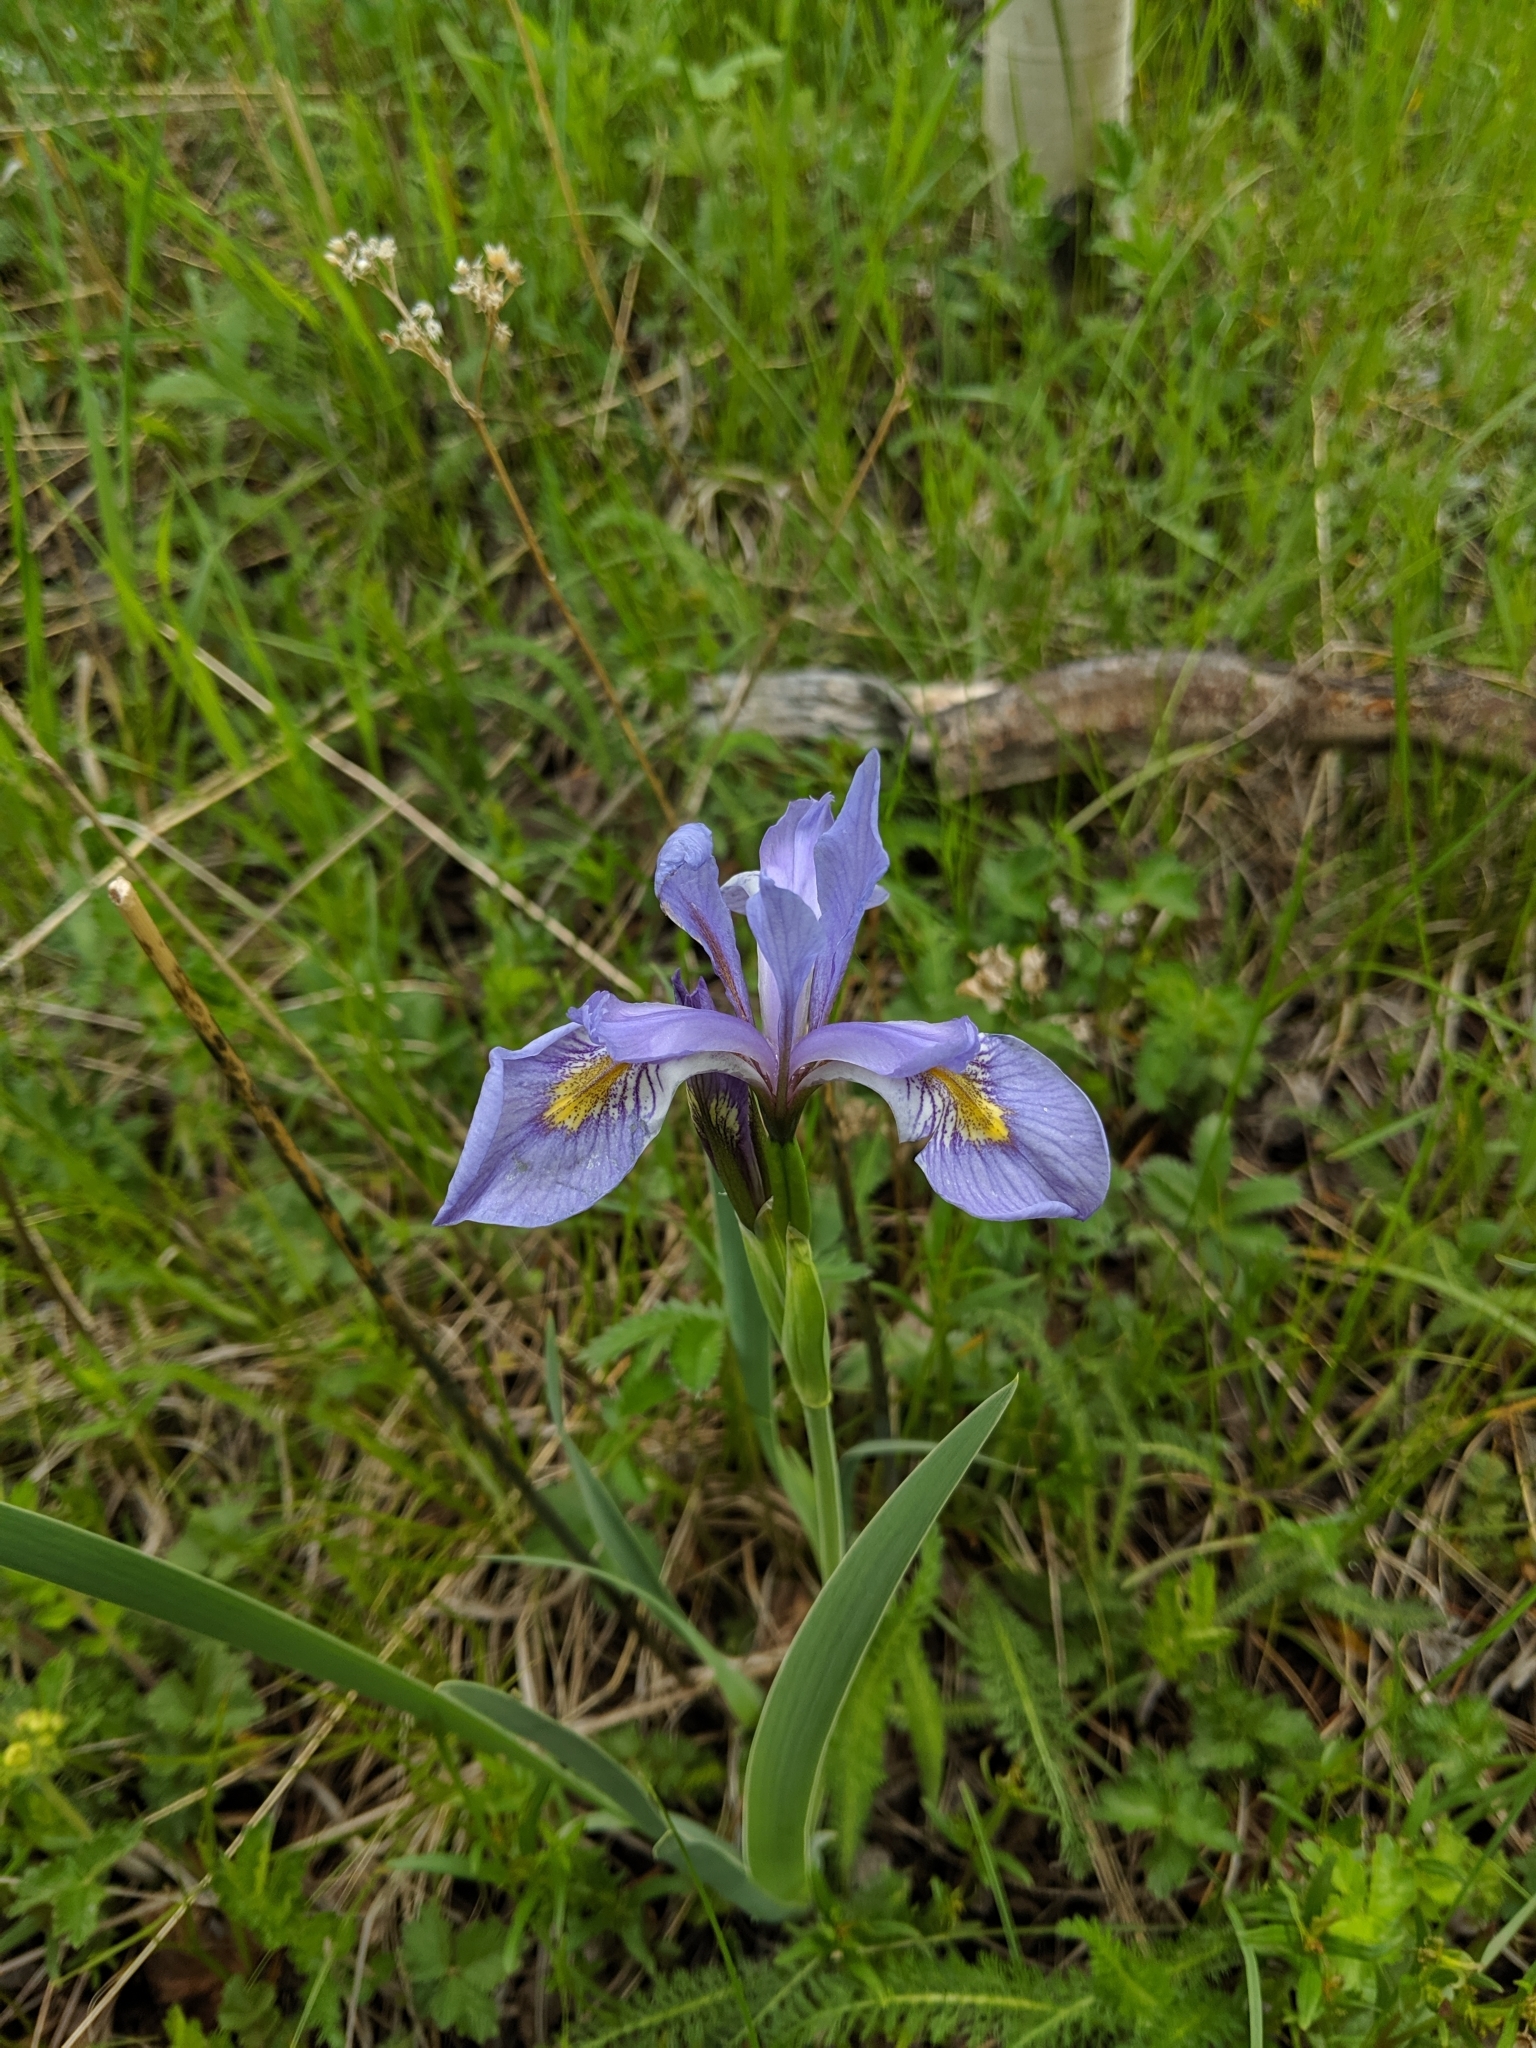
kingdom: Plantae
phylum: Tracheophyta
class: Liliopsida
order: Asparagales
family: Iridaceae
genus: Iris
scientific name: Iris missouriensis
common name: Rocky mountain iris
